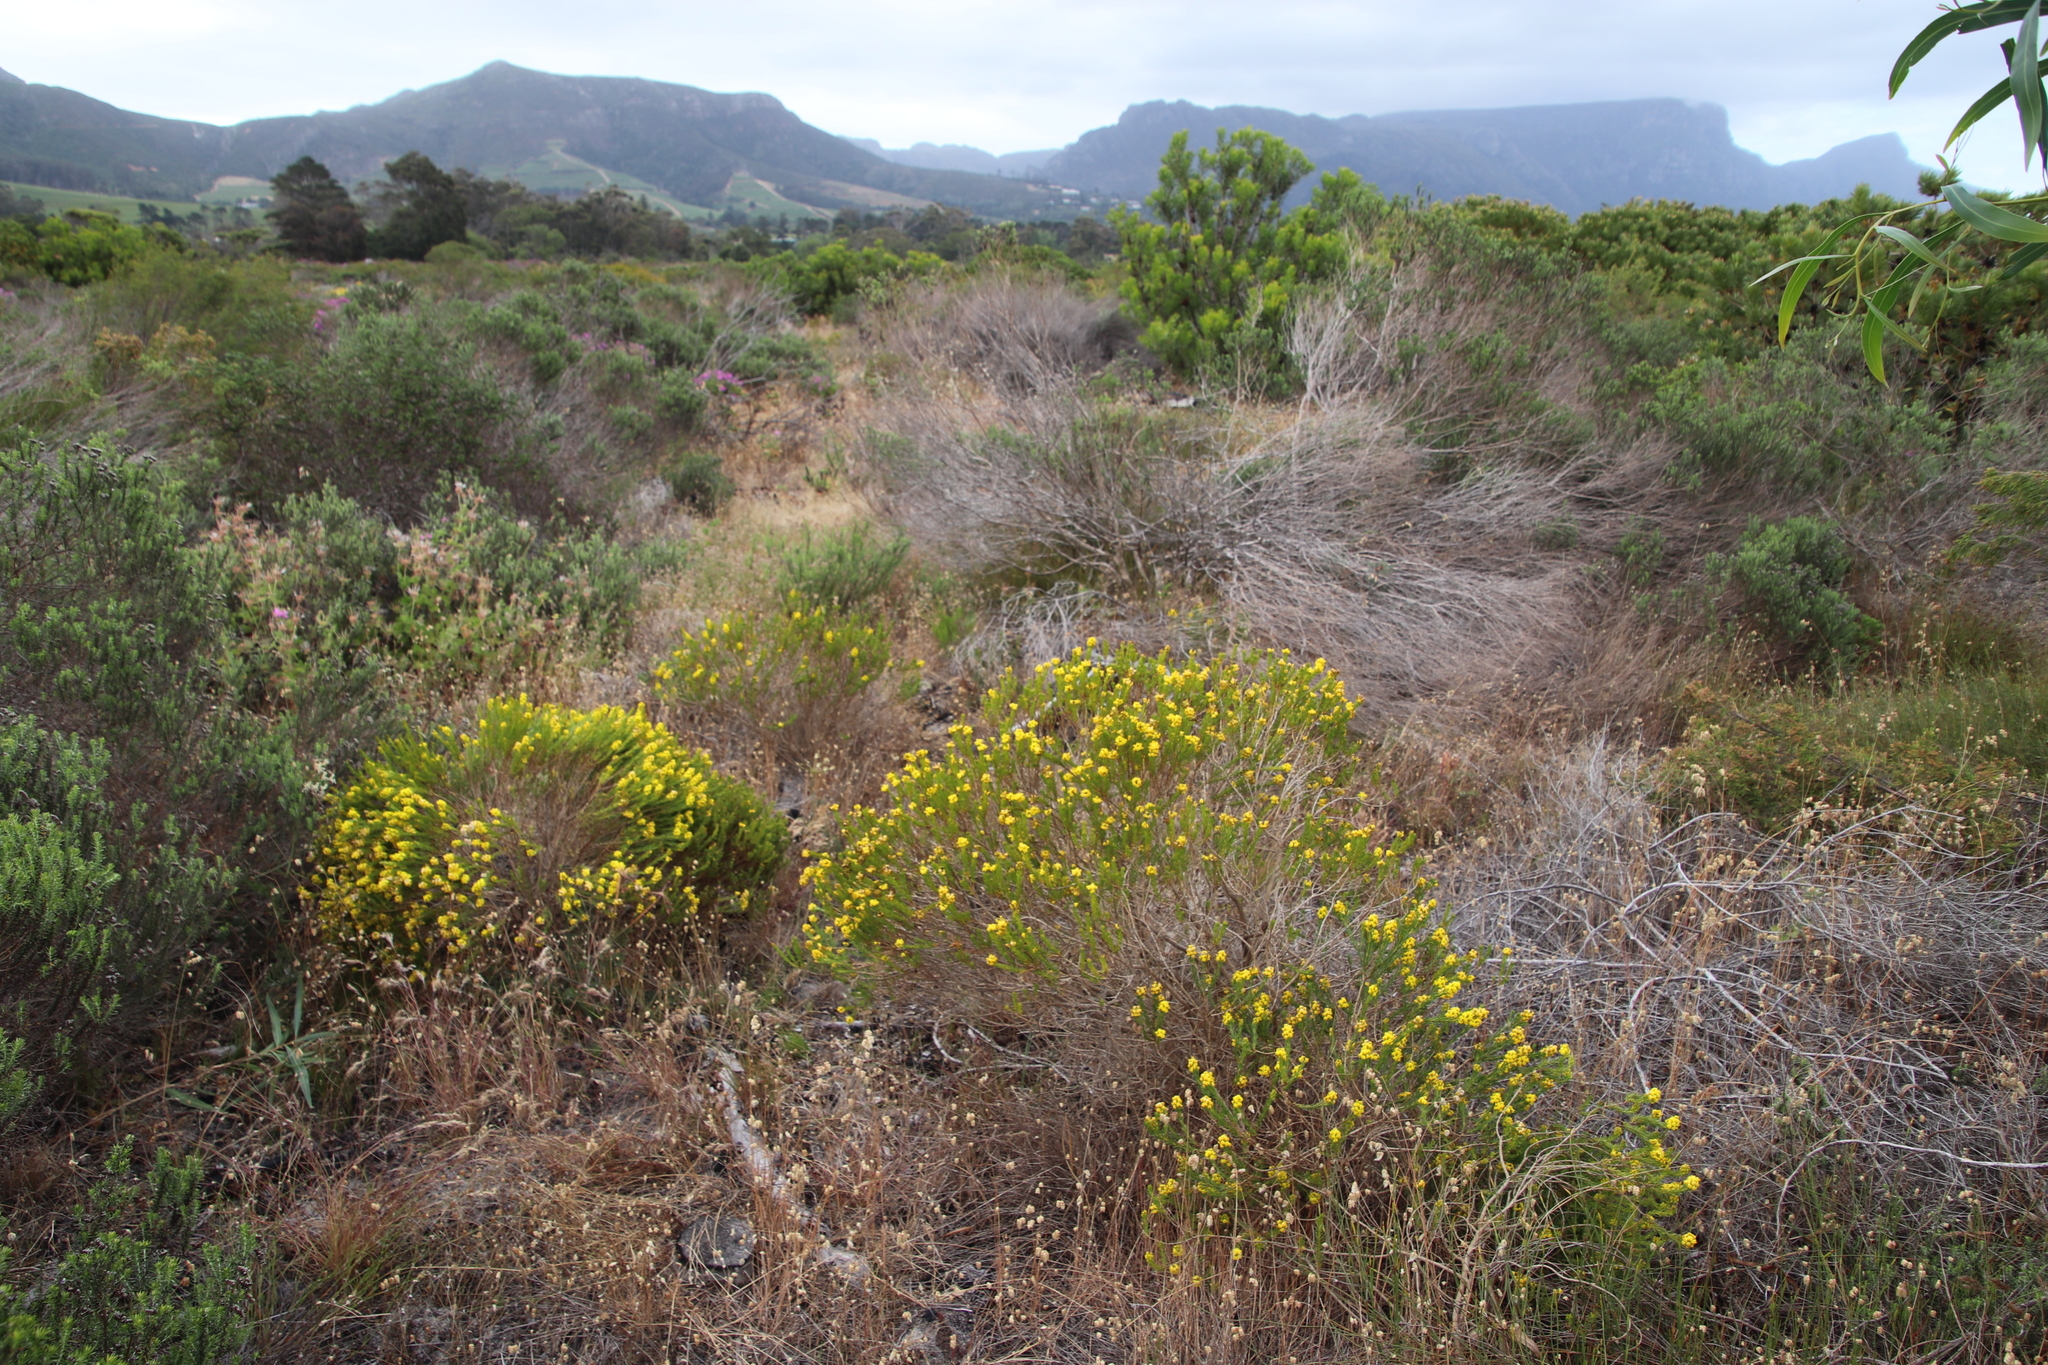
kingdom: Plantae
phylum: Tracheophyta
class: Magnoliopsida
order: Fabales
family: Fabaceae
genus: Aspalathus
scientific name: Aspalathus callosa
